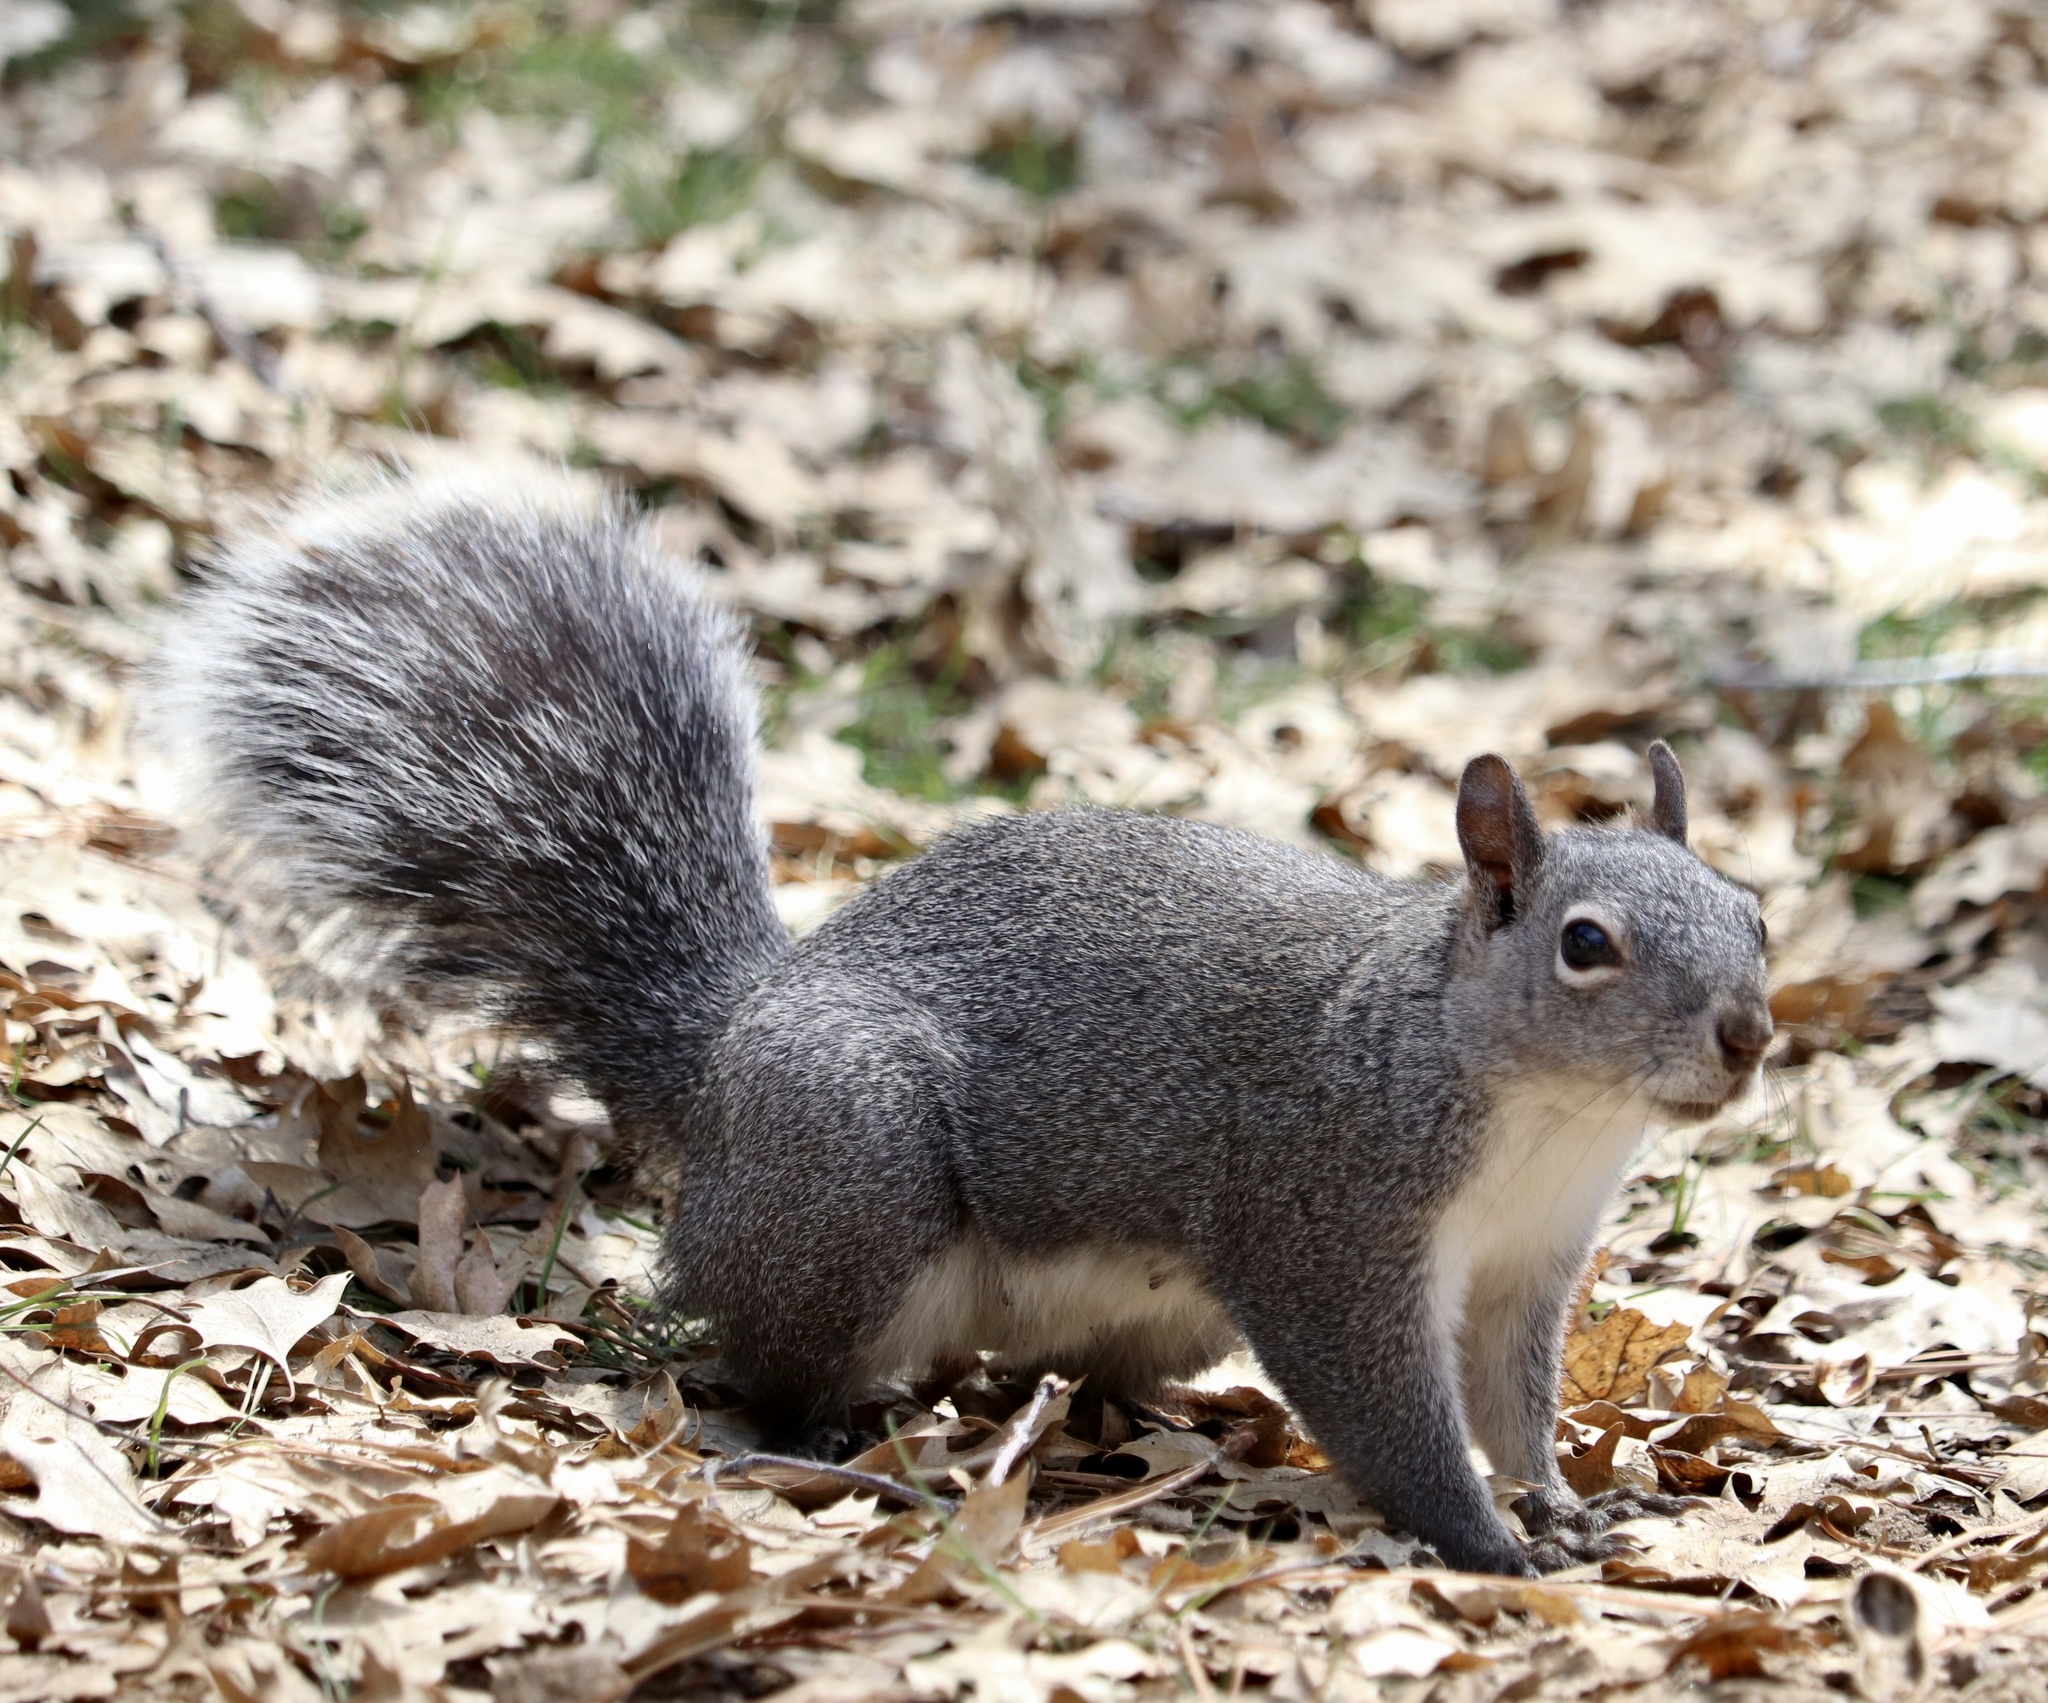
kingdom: Animalia
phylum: Chordata
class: Mammalia
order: Rodentia
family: Sciuridae
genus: Sciurus
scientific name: Sciurus griseus
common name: Western gray squirrel
